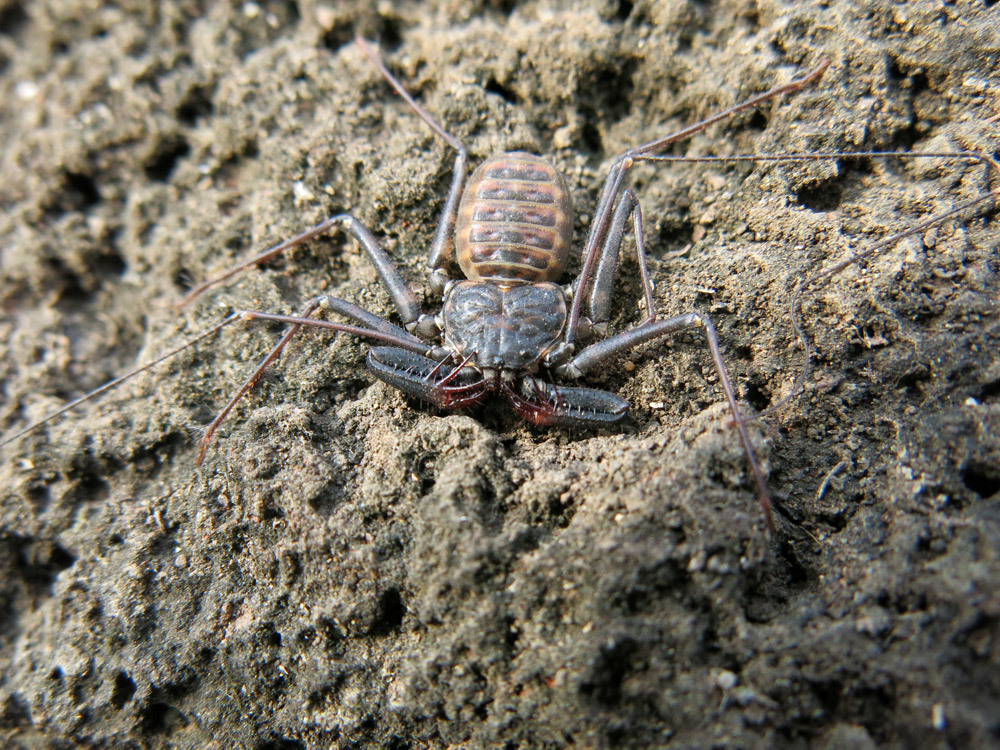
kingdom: Animalia
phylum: Arthropoda
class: Arachnida
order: Amblypygi
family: Phrynichidae
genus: Damon
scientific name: Damon variegatus
